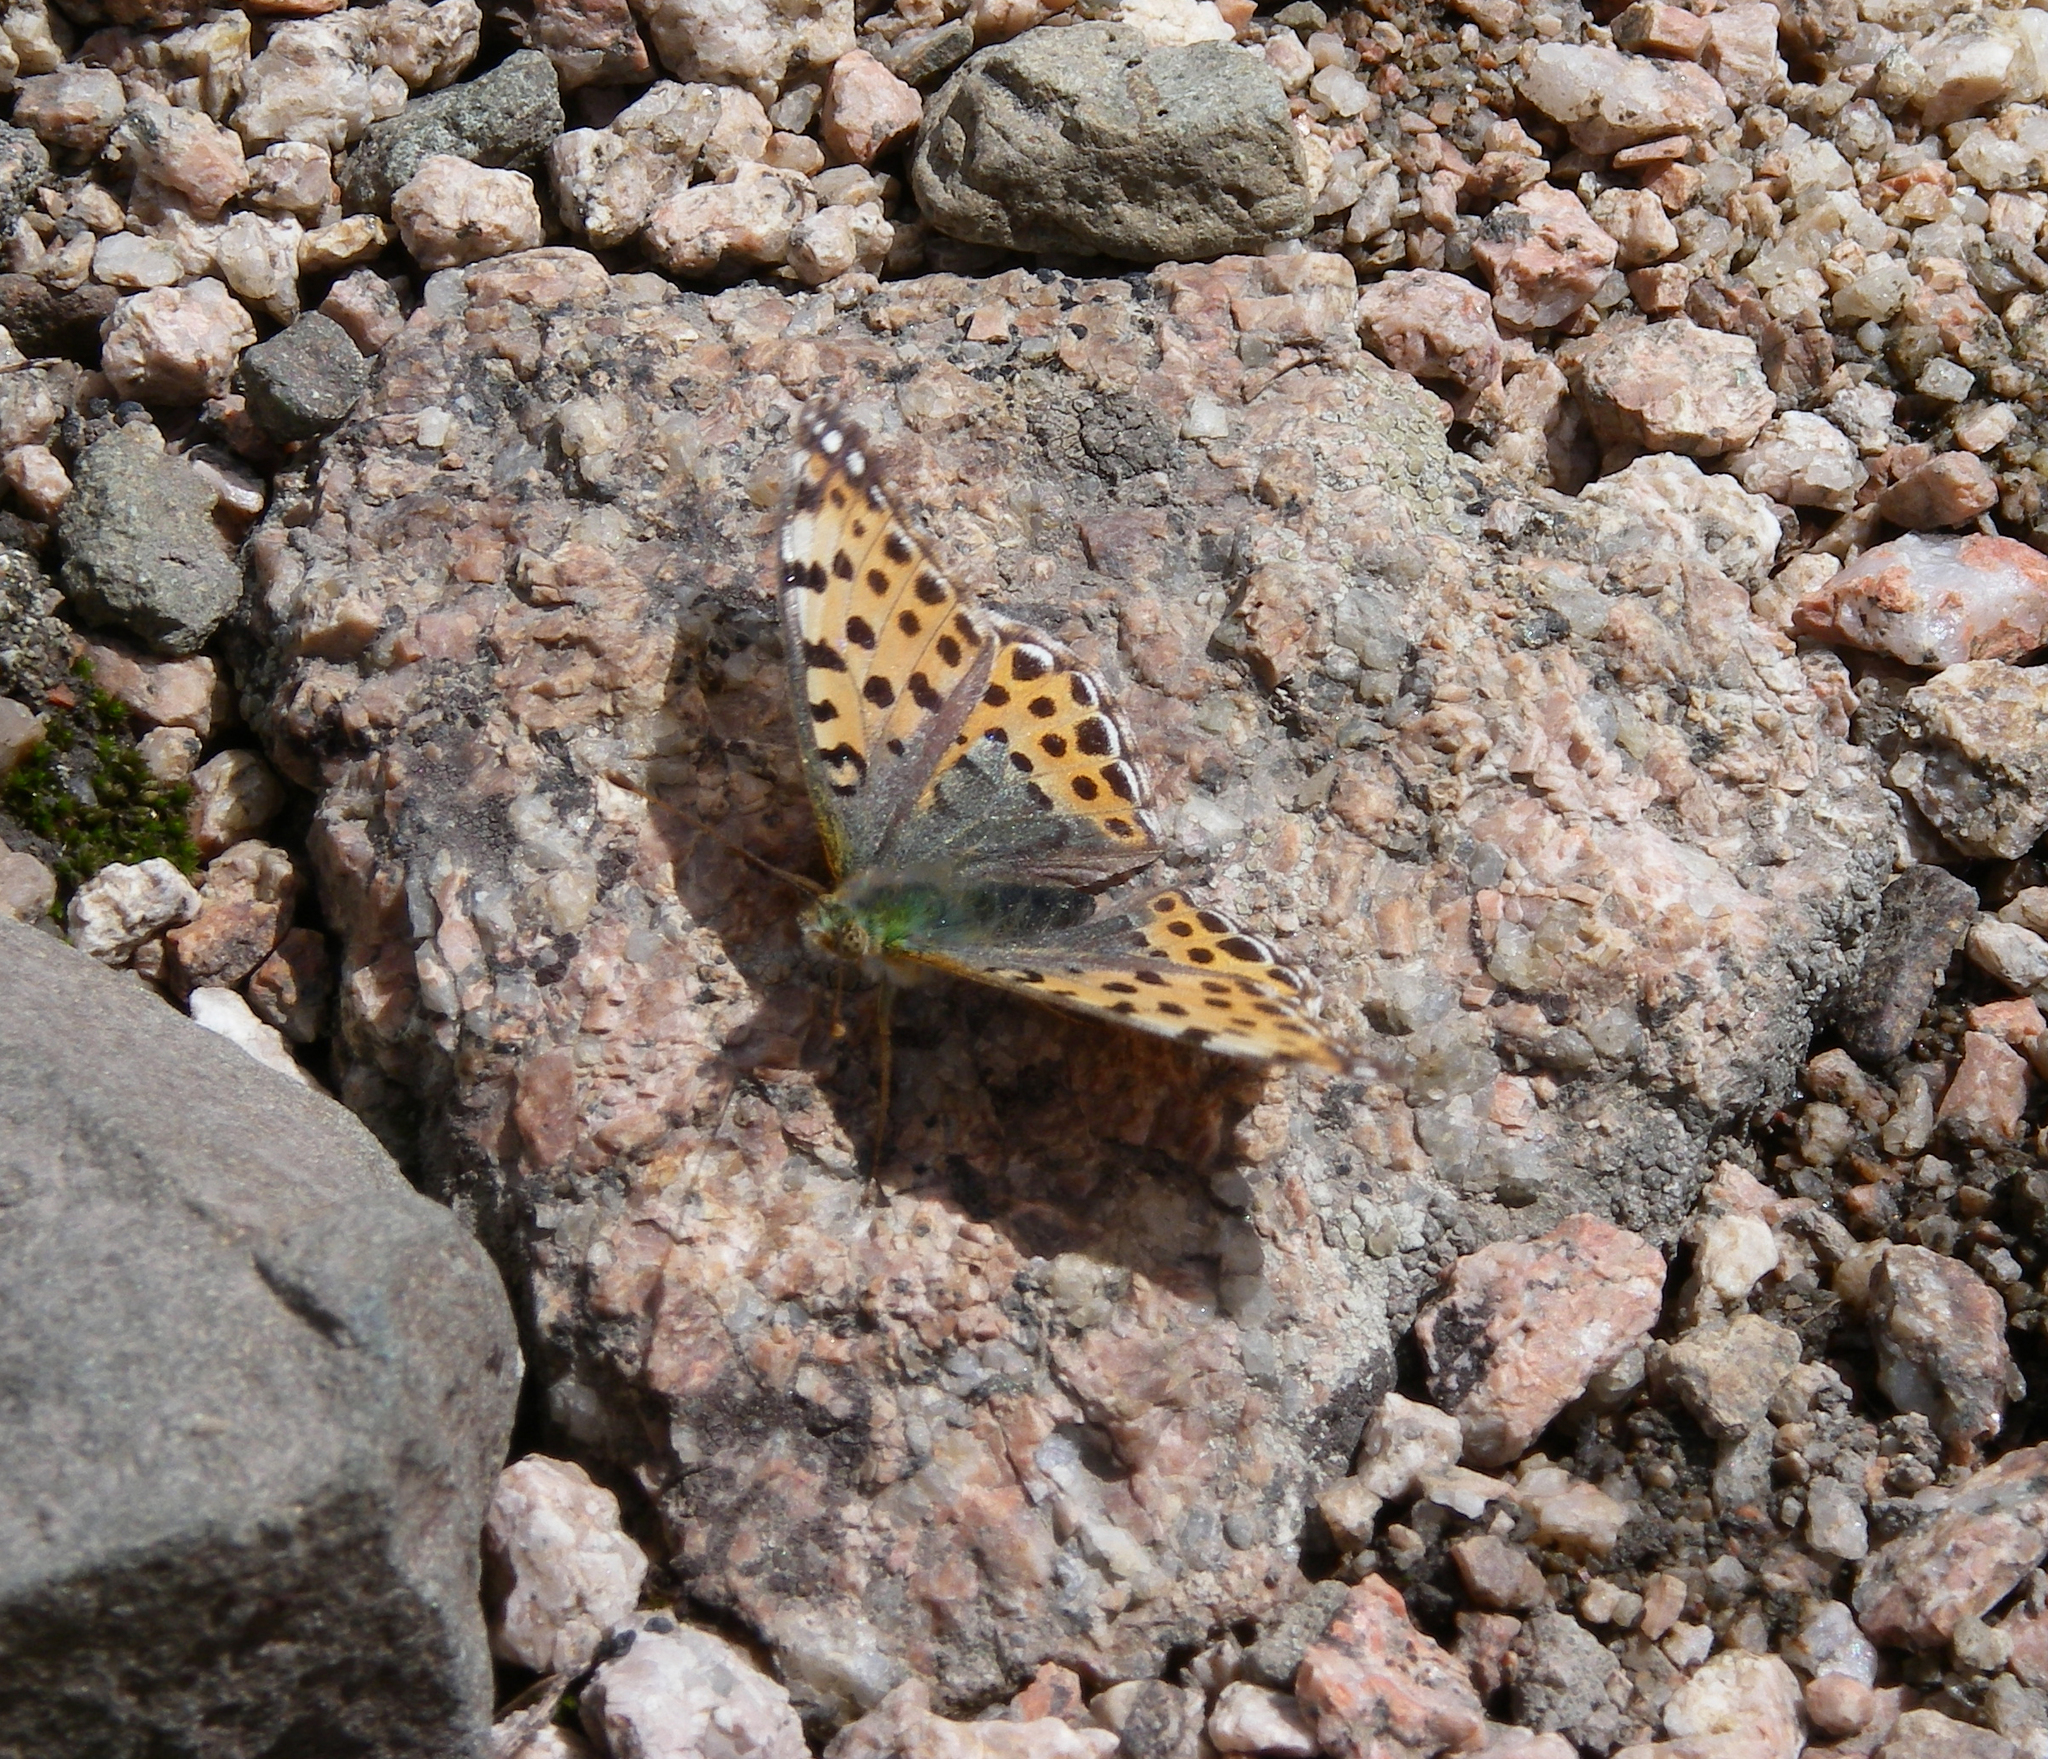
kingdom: Animalia
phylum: Arthropoda
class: Insecta
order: Lepidoptera
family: Nymphalidae
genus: Issoria
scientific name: Issoria lathonia
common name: Queen of spain fritillary
